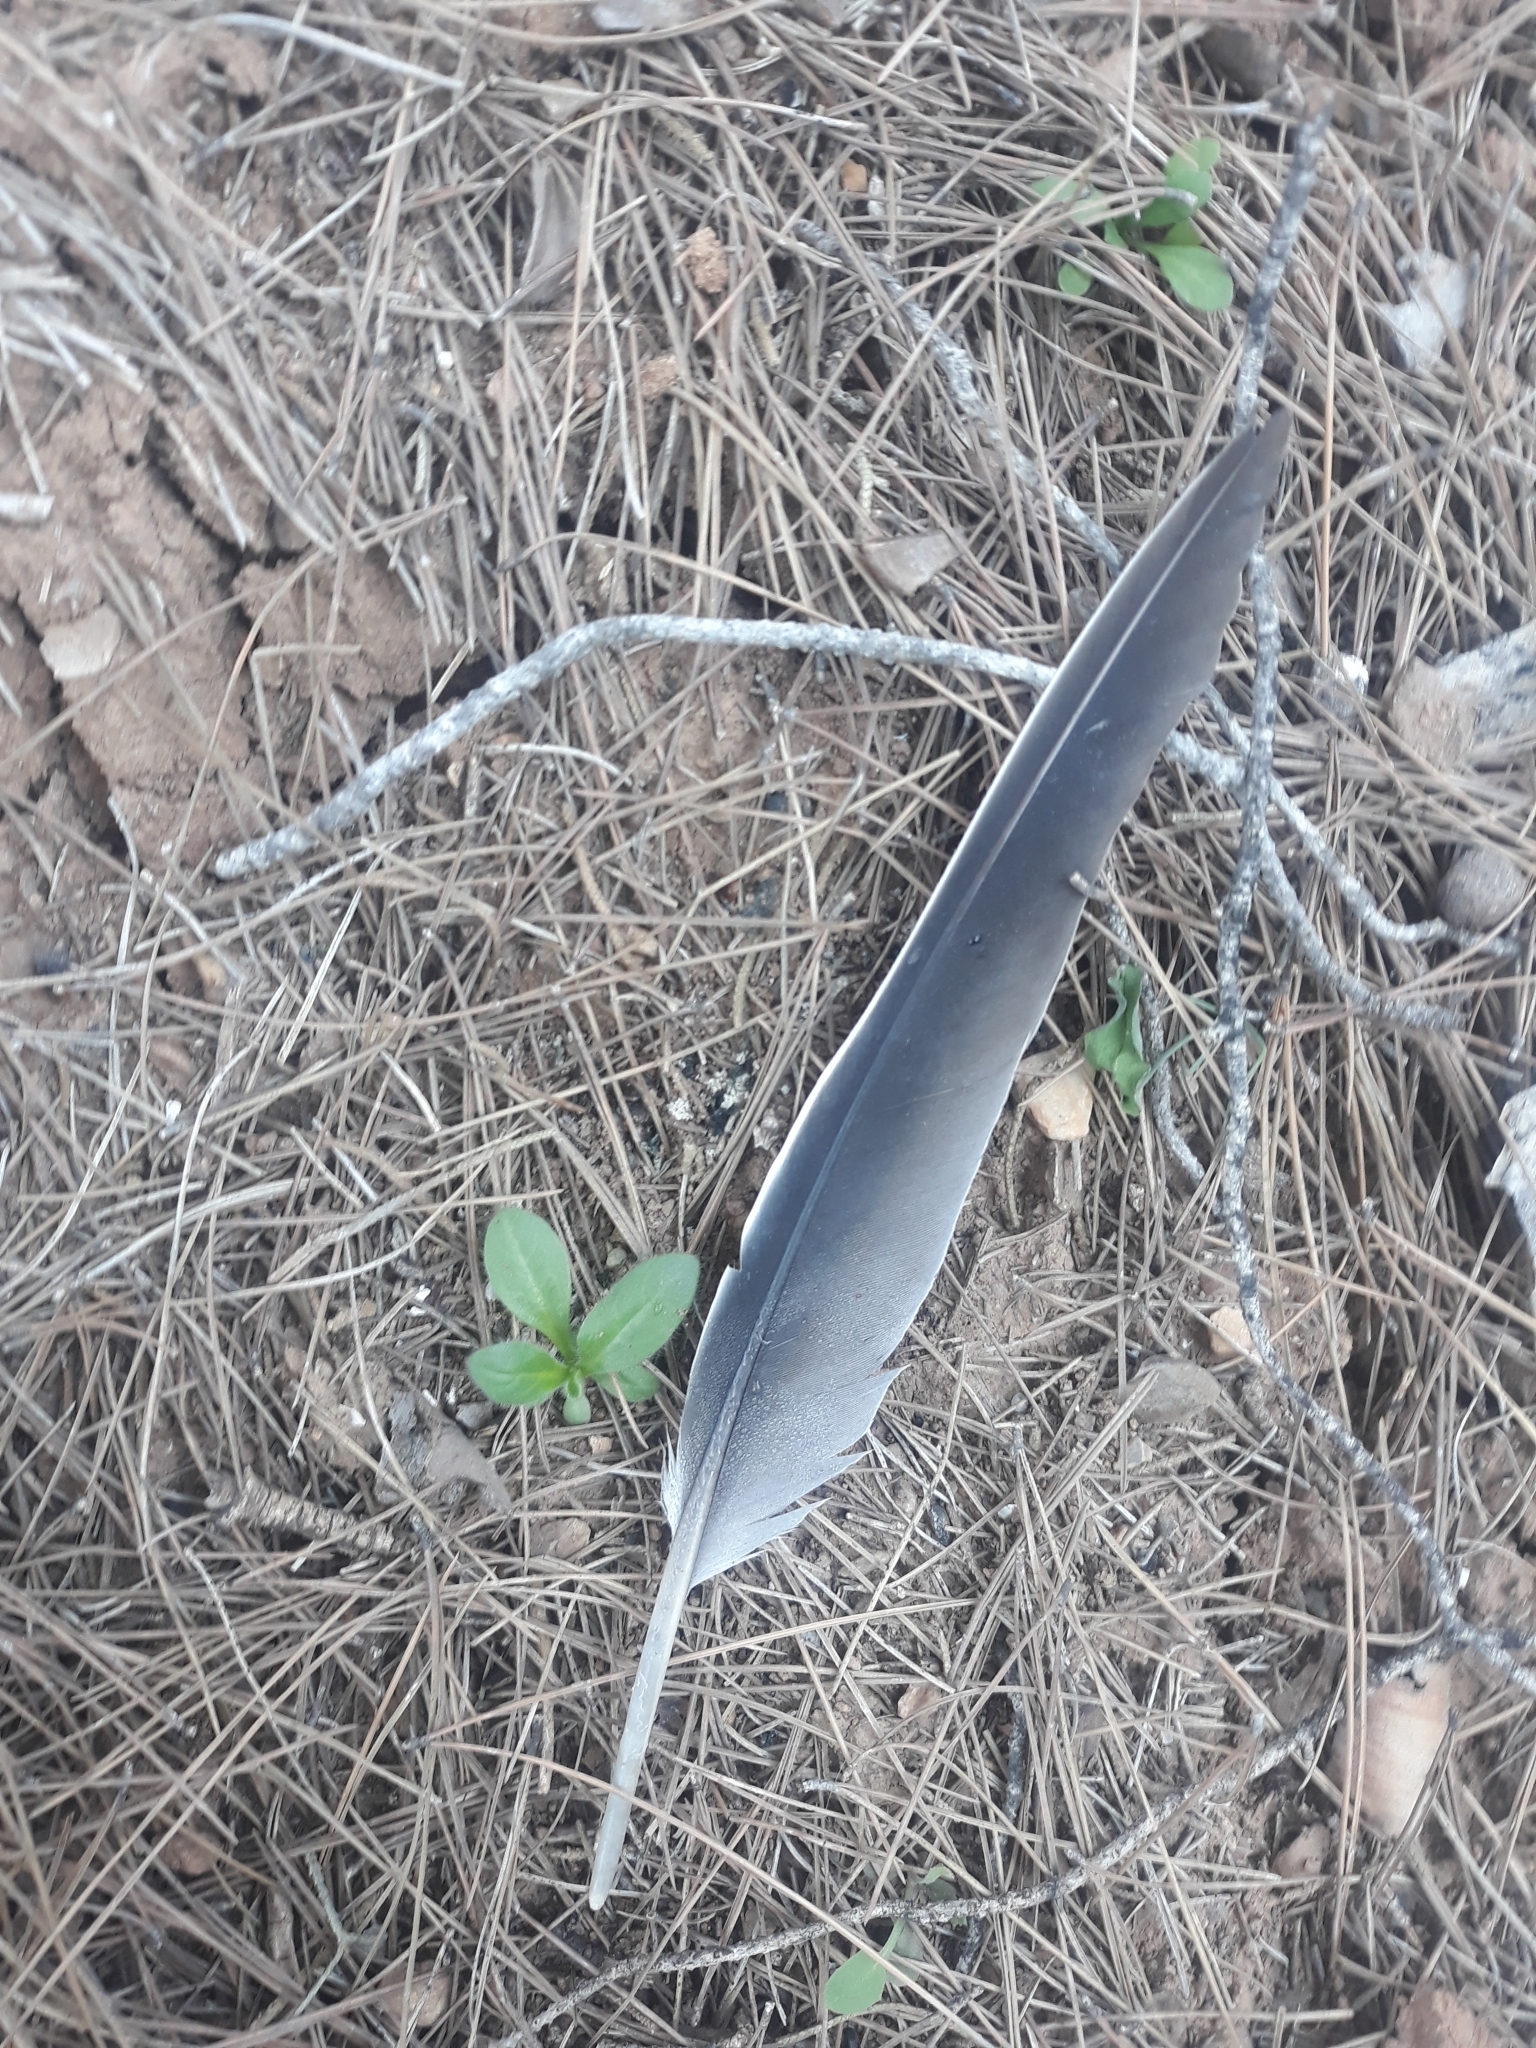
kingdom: Animalia
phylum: Chordata
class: Aves
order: Columbiformes
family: Columbidae
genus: Columba
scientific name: Columba palumbus
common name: Common wood pigeon
